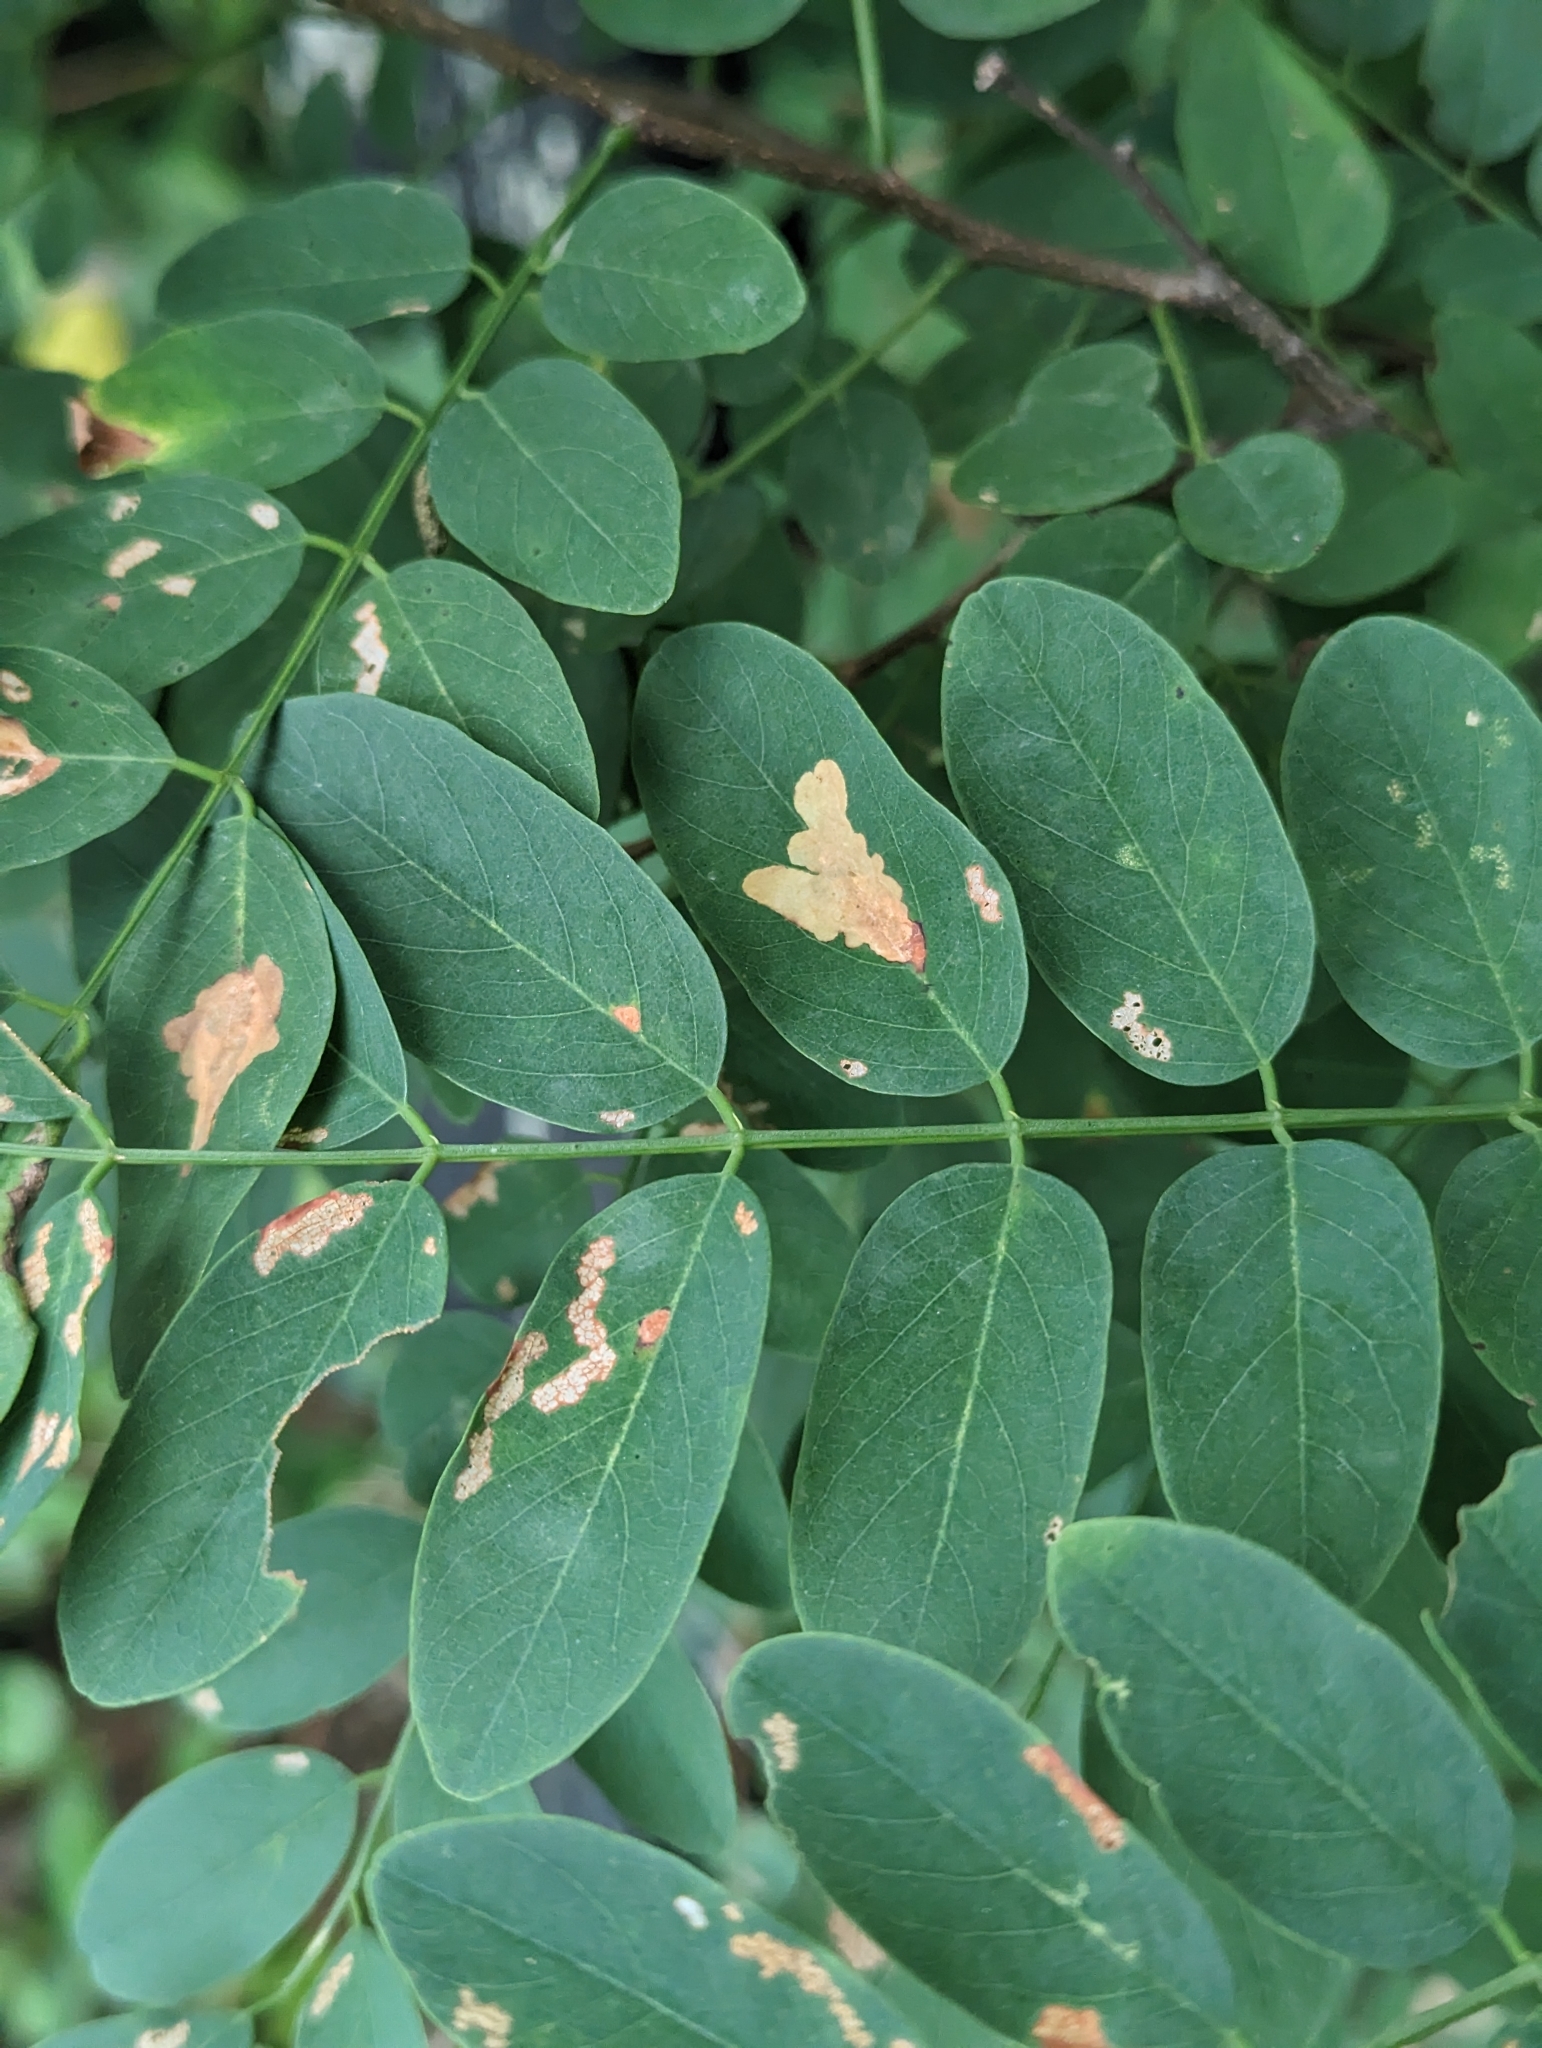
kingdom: Animalia
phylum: Arthropoda
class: Insecta
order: Lepidoptera
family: Gracillariidae
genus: Parectopa
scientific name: Parectopa robiniella
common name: Locust digitate leafminer
